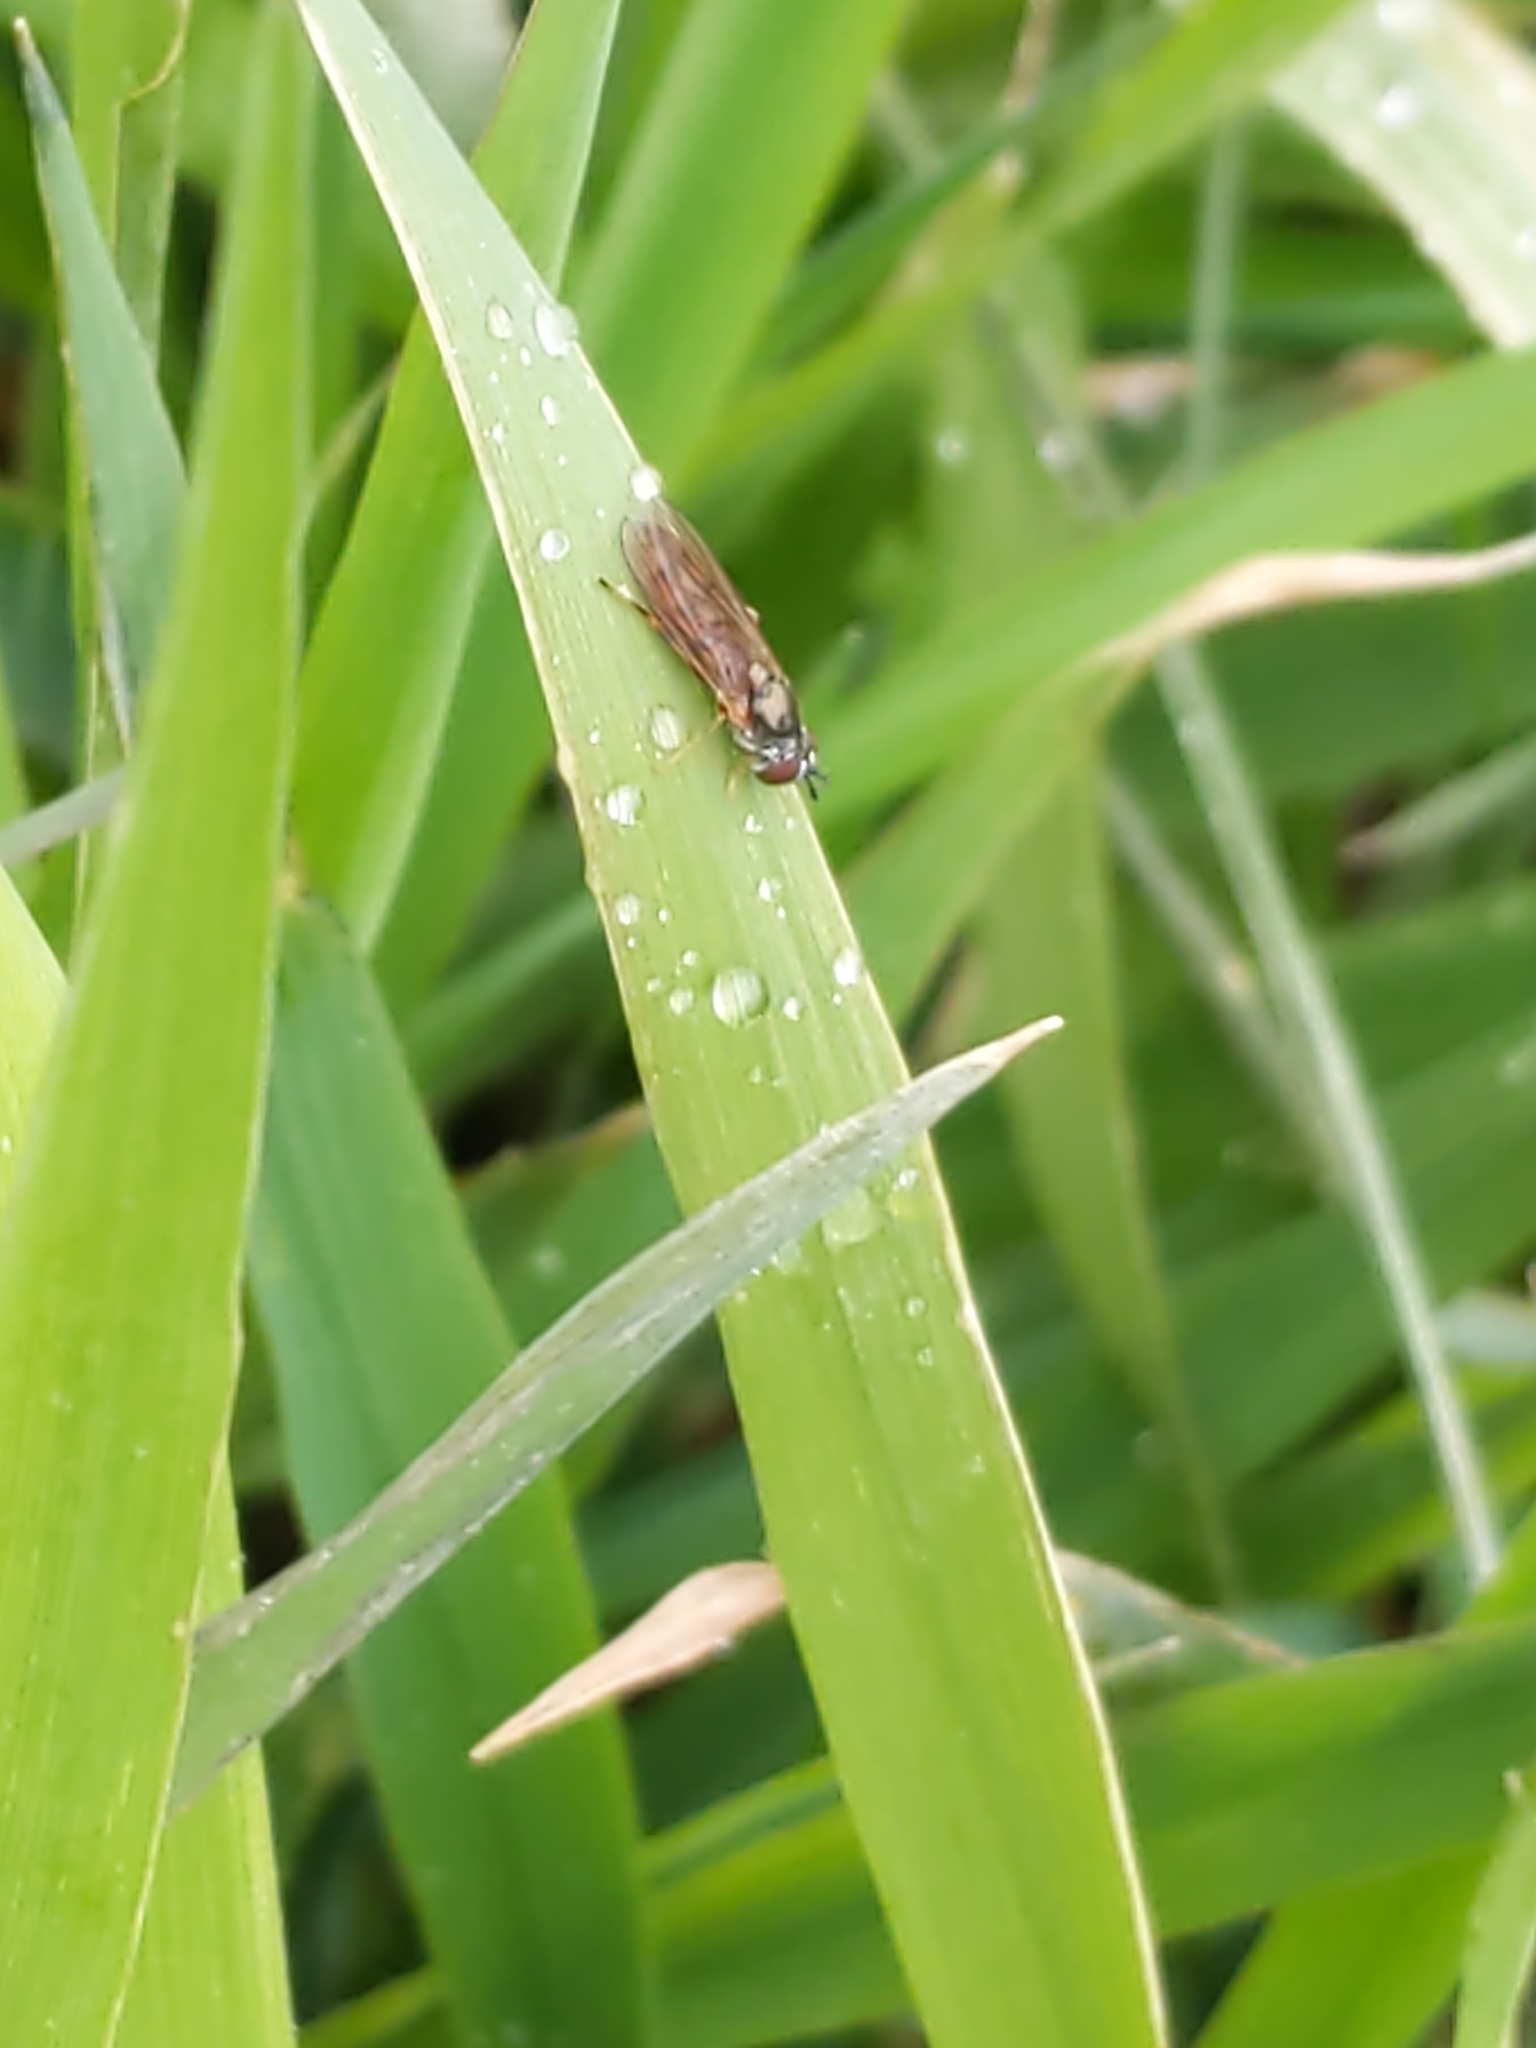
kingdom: Animalia
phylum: Arthropoda
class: Insecta
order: Diptera
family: Syrphidae
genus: Platycheirus
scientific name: Platycheirus
